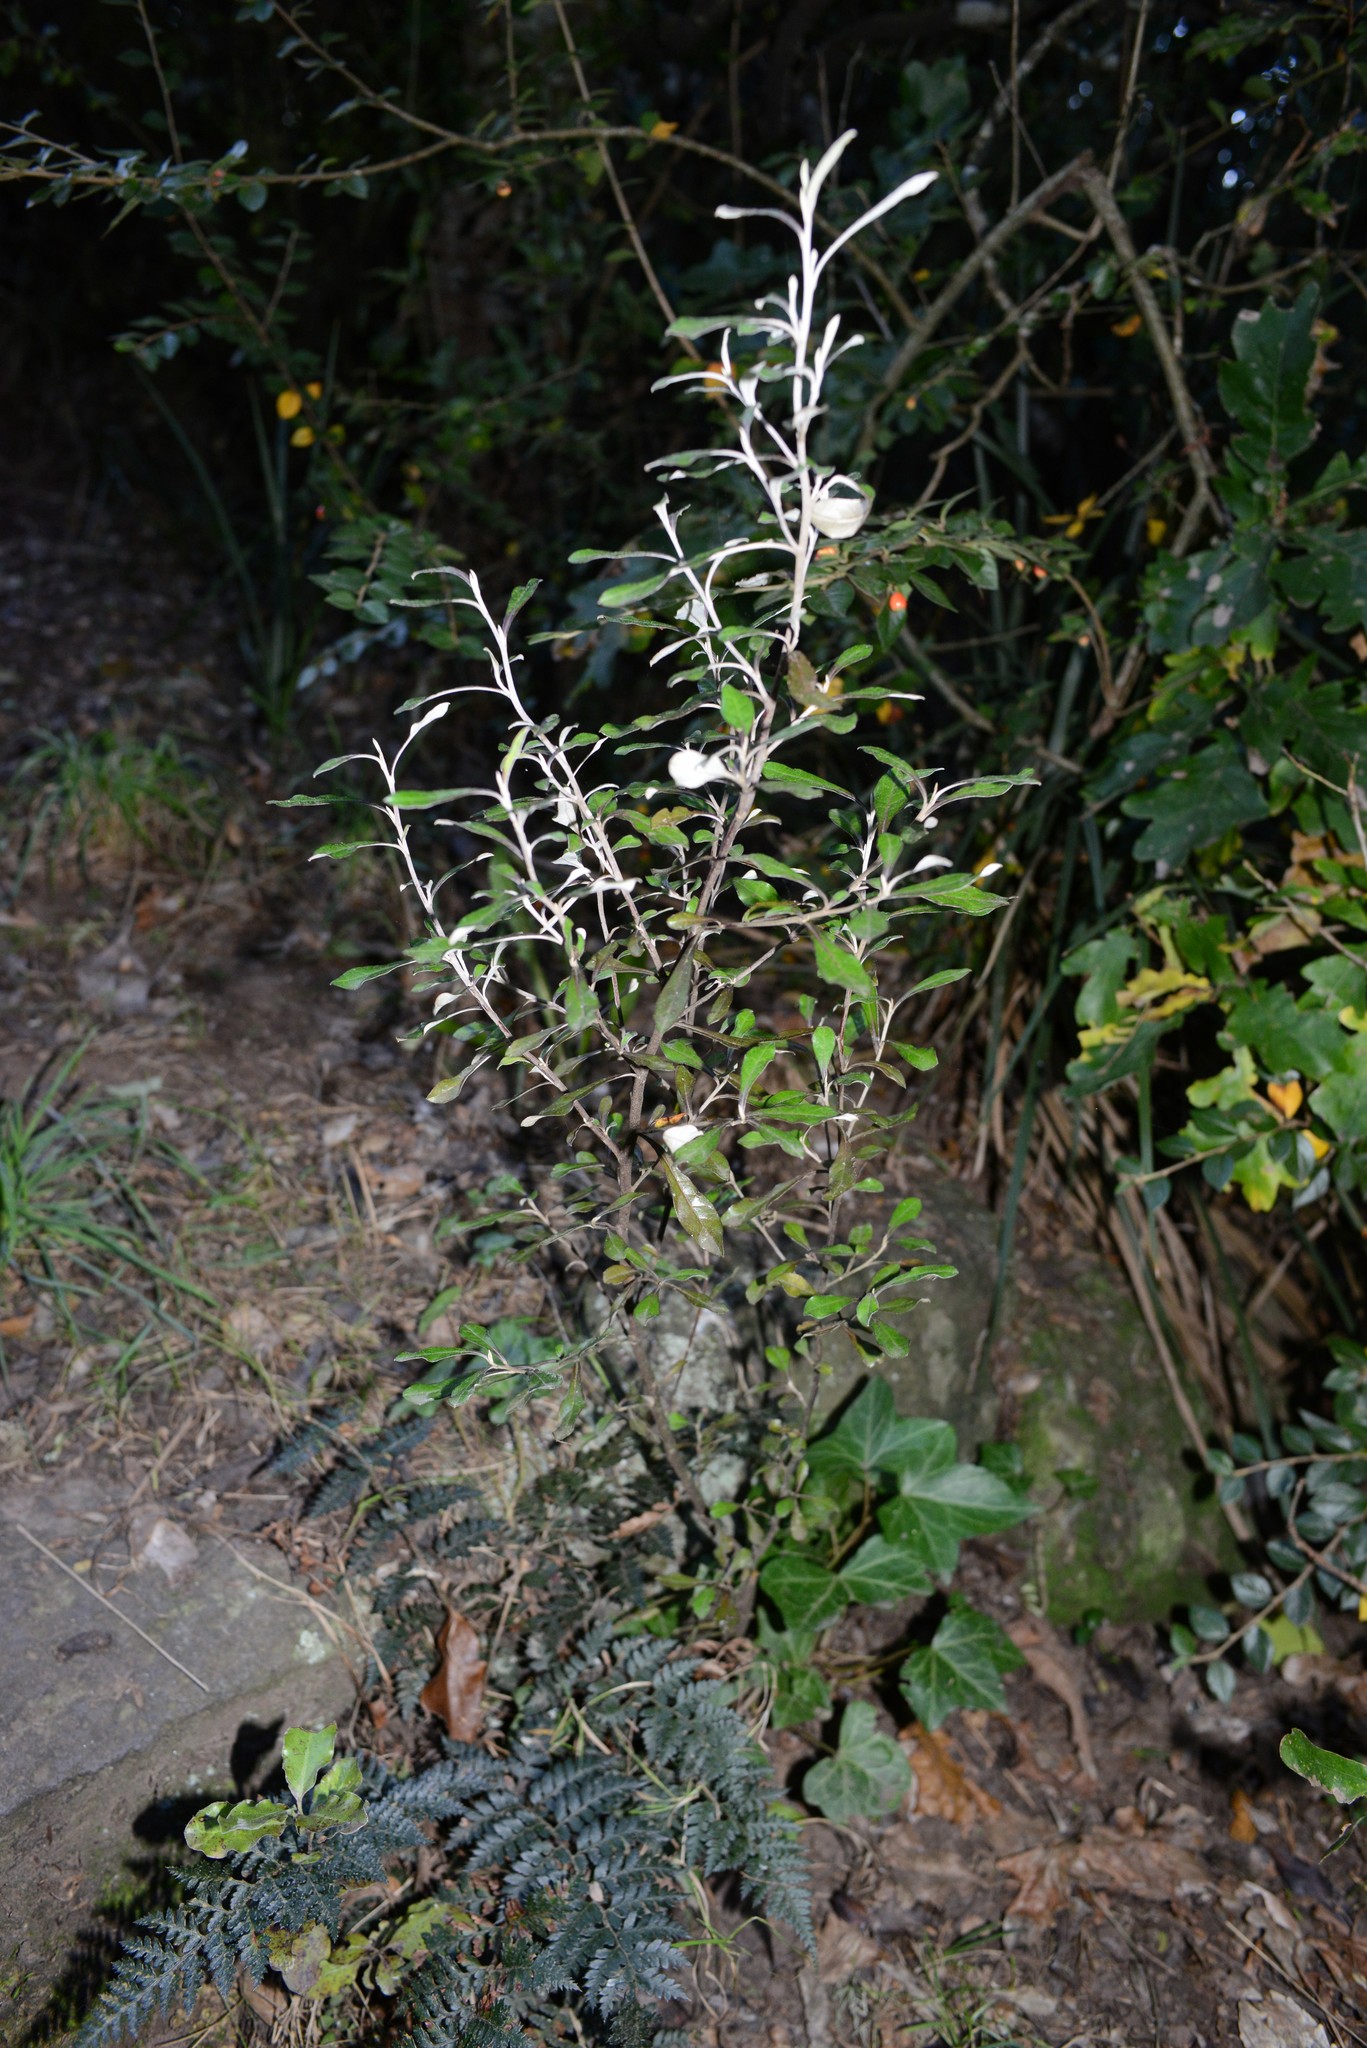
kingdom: Plantae
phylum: Tracheophyta
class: Magnoliopsida
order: Asterales
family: Argophyllaceae
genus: Corokia
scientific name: Corokia cotoneaster
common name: Wire nettingbush
